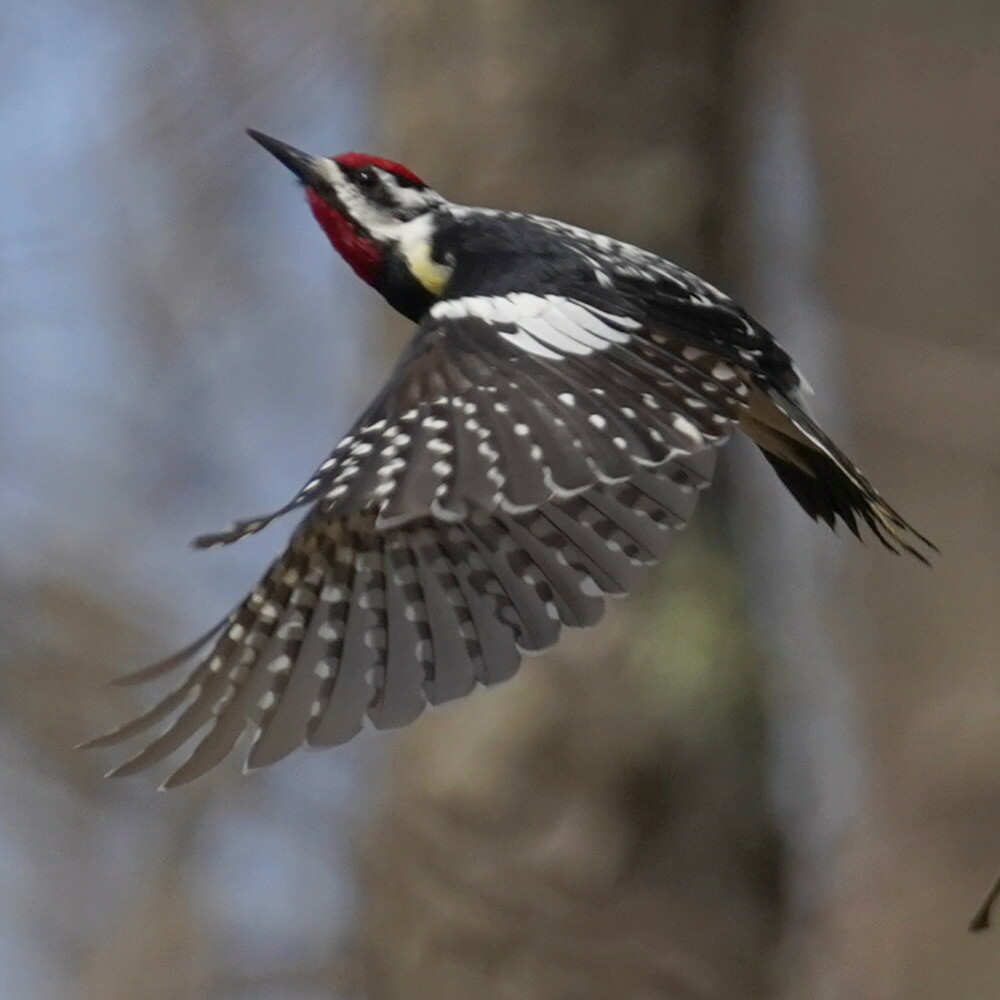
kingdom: Animalia
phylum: Chordata
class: Aves
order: Piciformes
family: Picidae
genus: Sphyrapicus
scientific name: Sphyrapicus varius
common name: Yellow-bellied sapsucker
